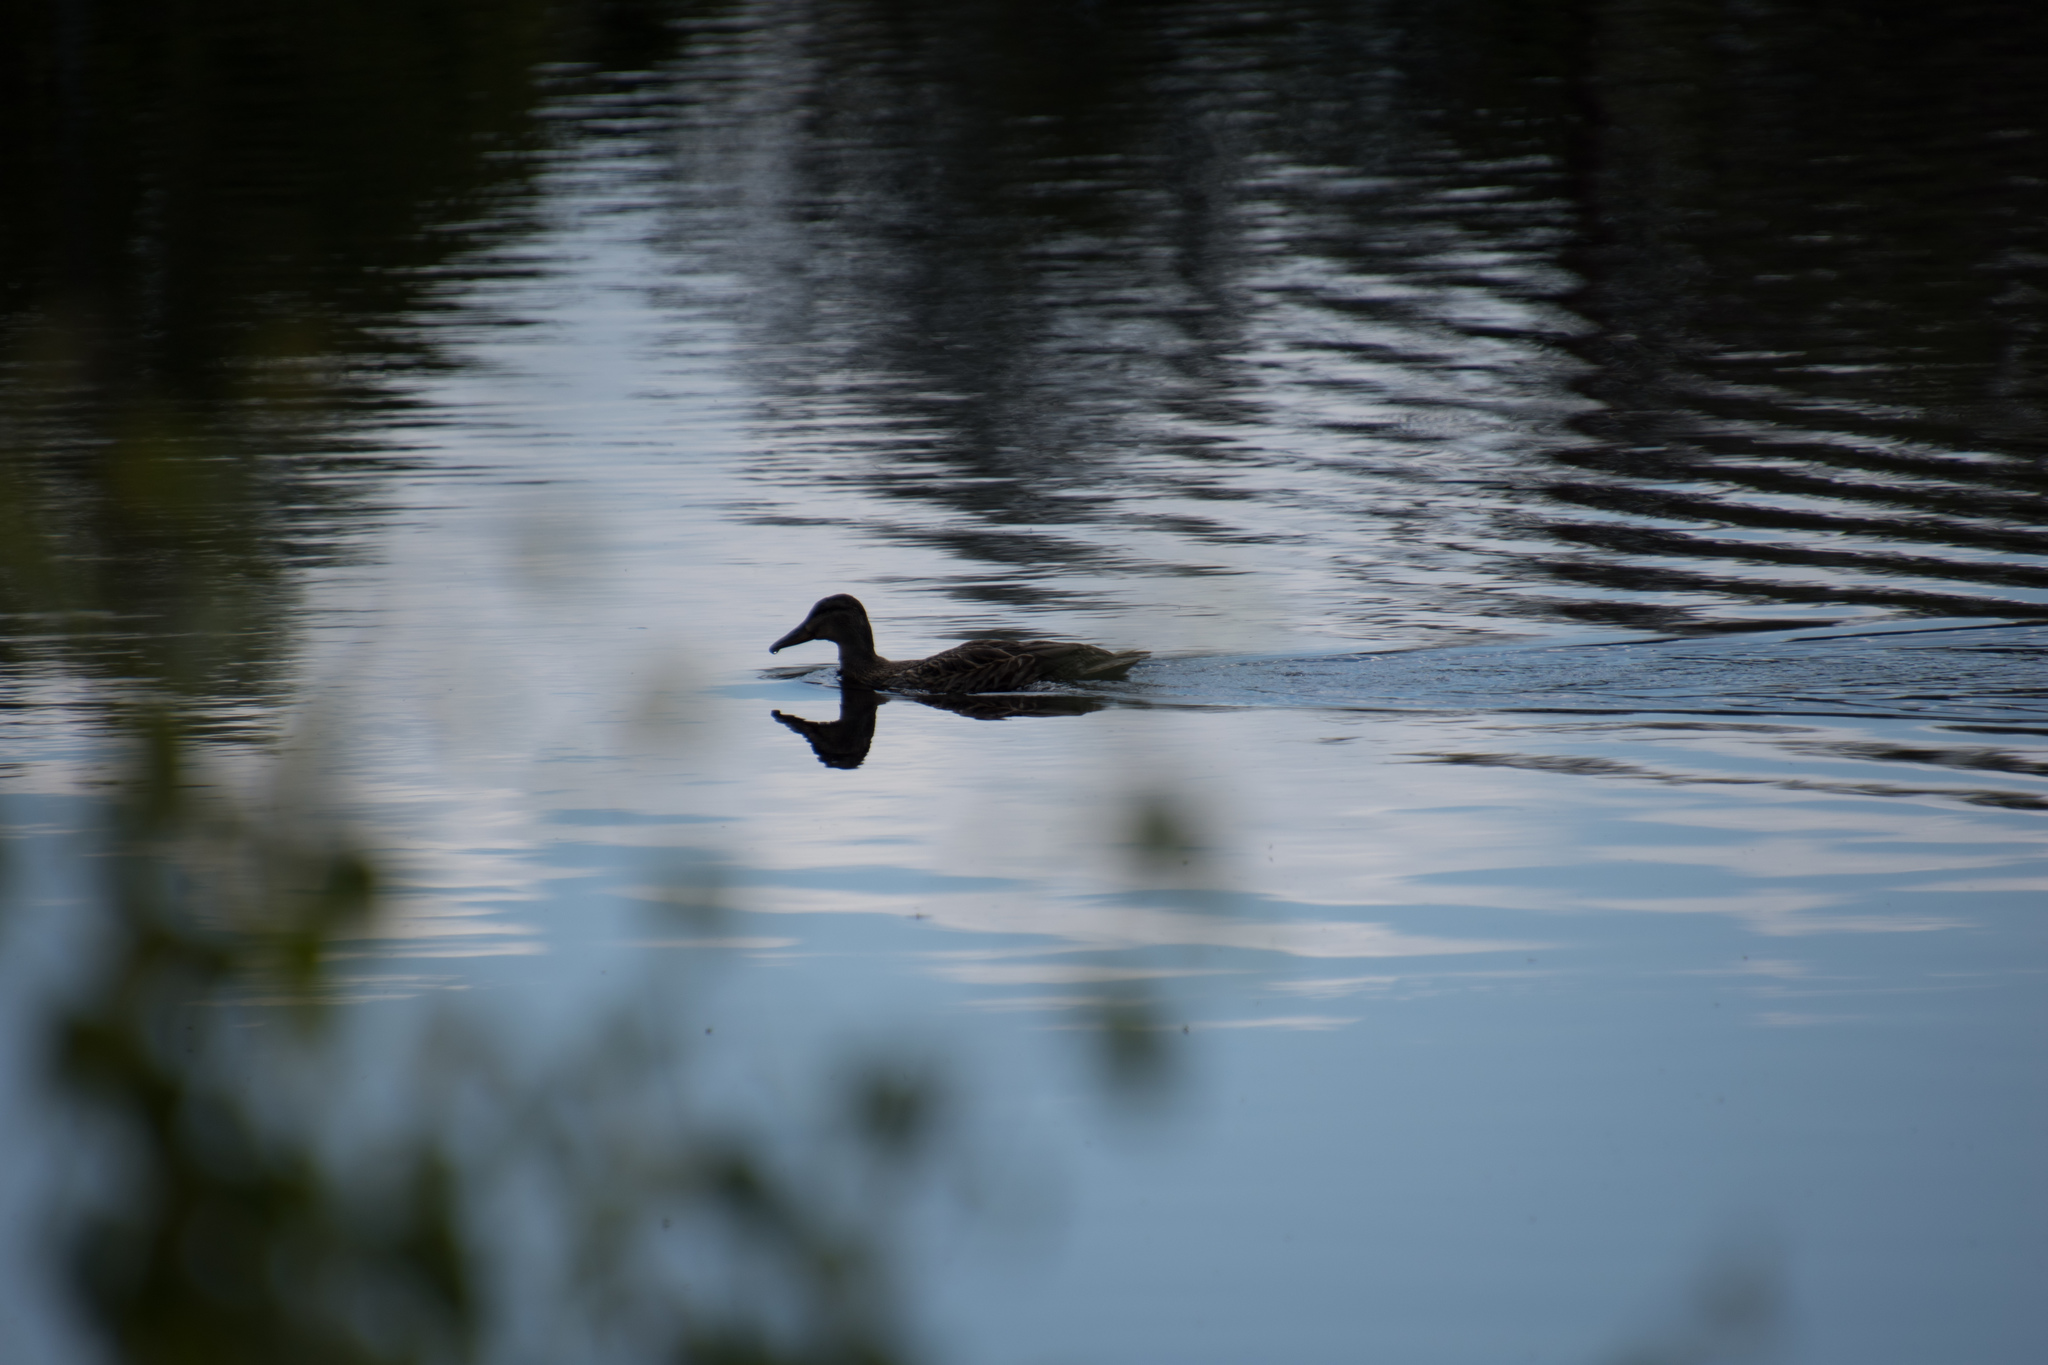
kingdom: Animalia
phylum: Chordata
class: Aves
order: Anseriformes
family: Anatidae
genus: Anas
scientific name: Anas platyrhynchos
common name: Mallard
